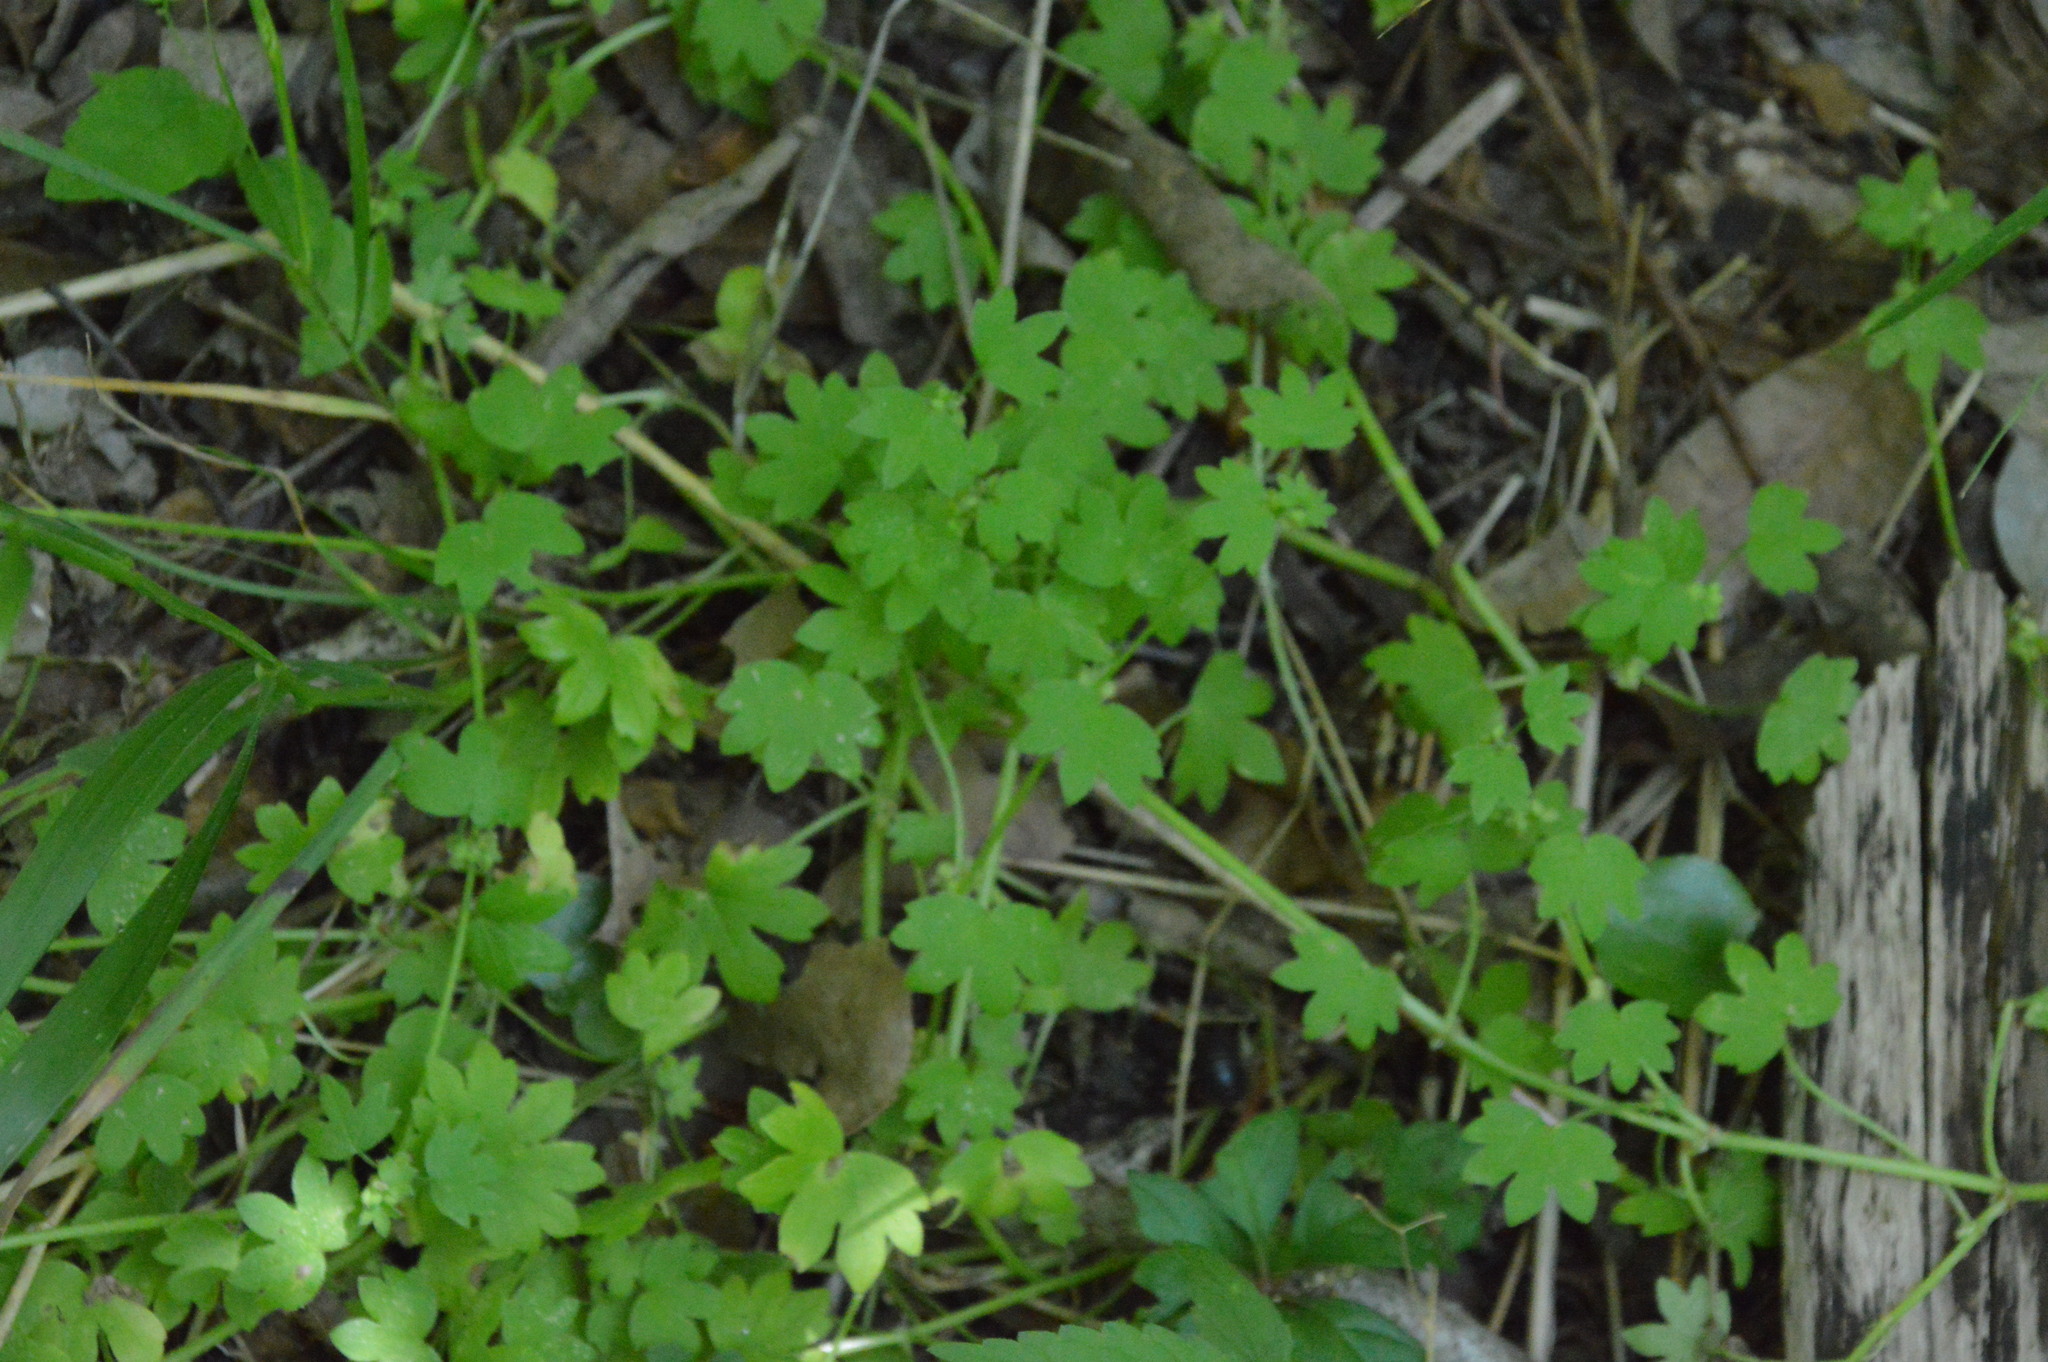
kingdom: Plantae
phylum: Tracheophyta
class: Magnoliopsida
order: Apiales
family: Apiaceae
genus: Bowlesia
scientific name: Bowlesia incana
